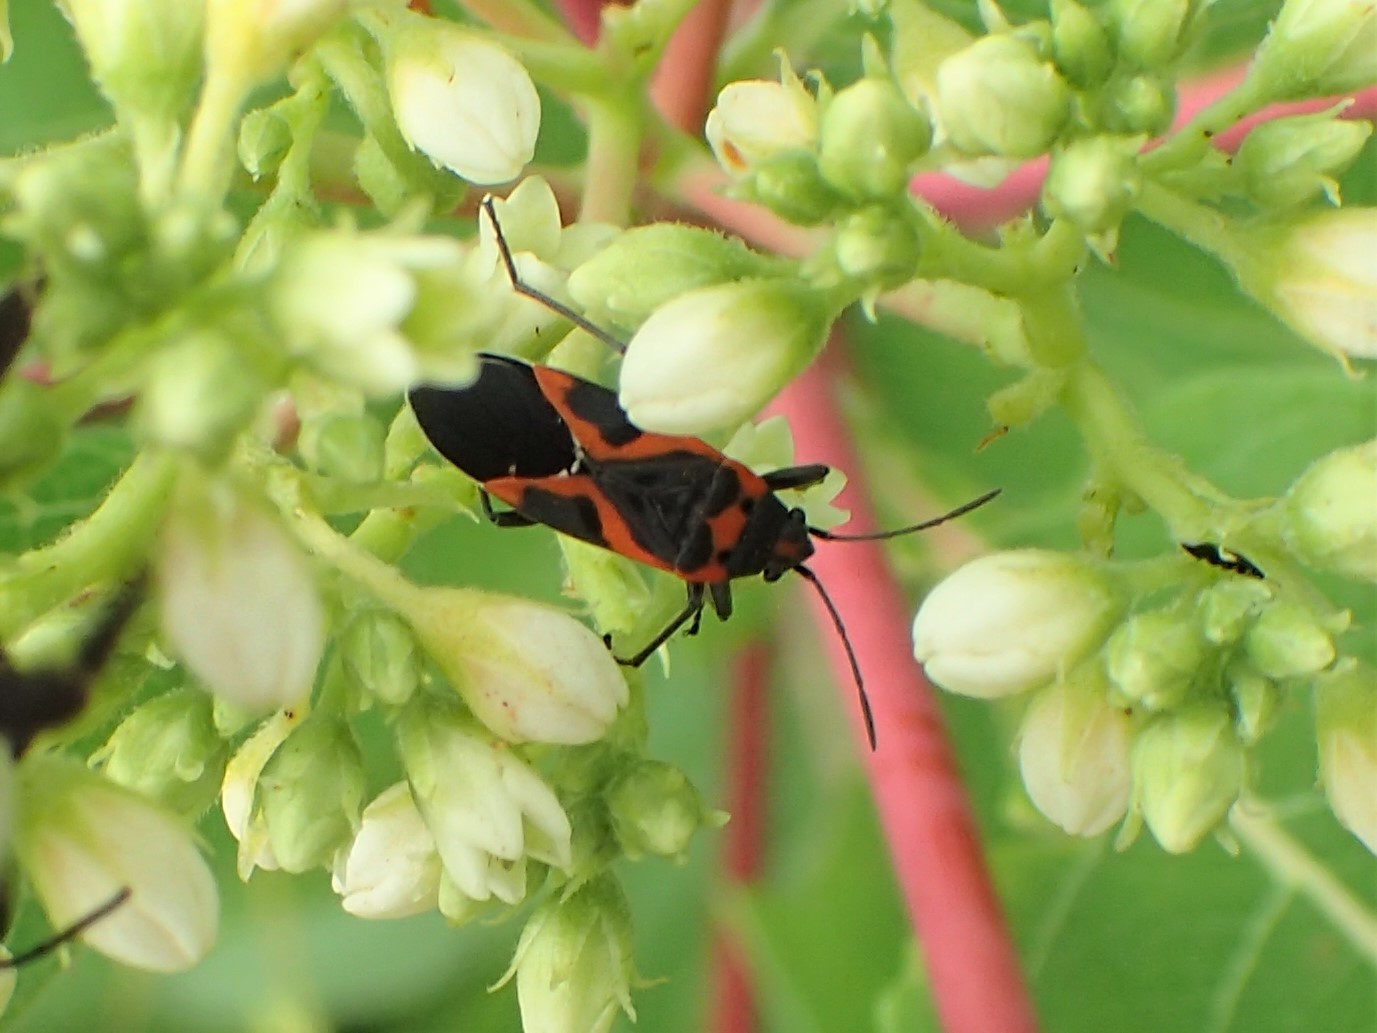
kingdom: Animalia
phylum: Arthropoda
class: Insecta
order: Hemiptera
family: Lygaeidae
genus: Lygaeus
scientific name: Lygaeus kalmii
